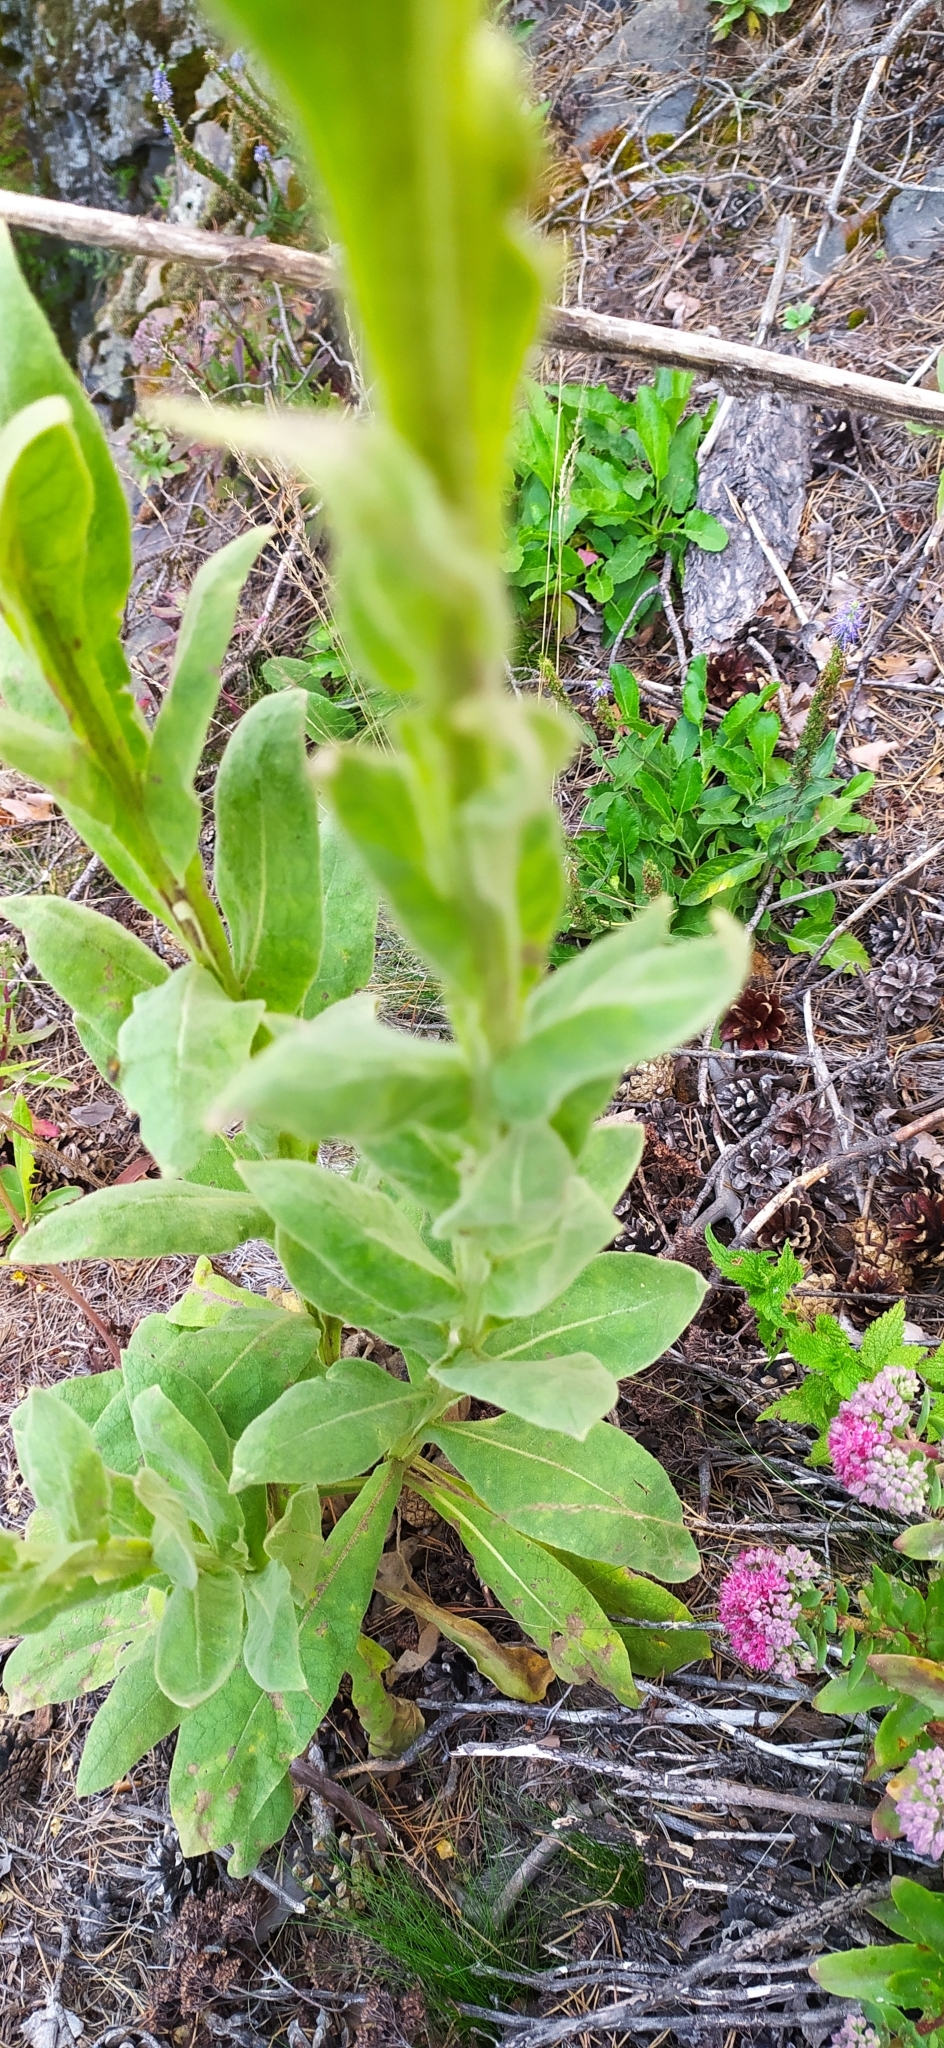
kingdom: Plantae
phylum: Tracheophyta
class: Magnoliopsida
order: Lamiales
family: Scrophulariaceae
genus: Verbascum
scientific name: Verbascum thapsus
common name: Common mullein
